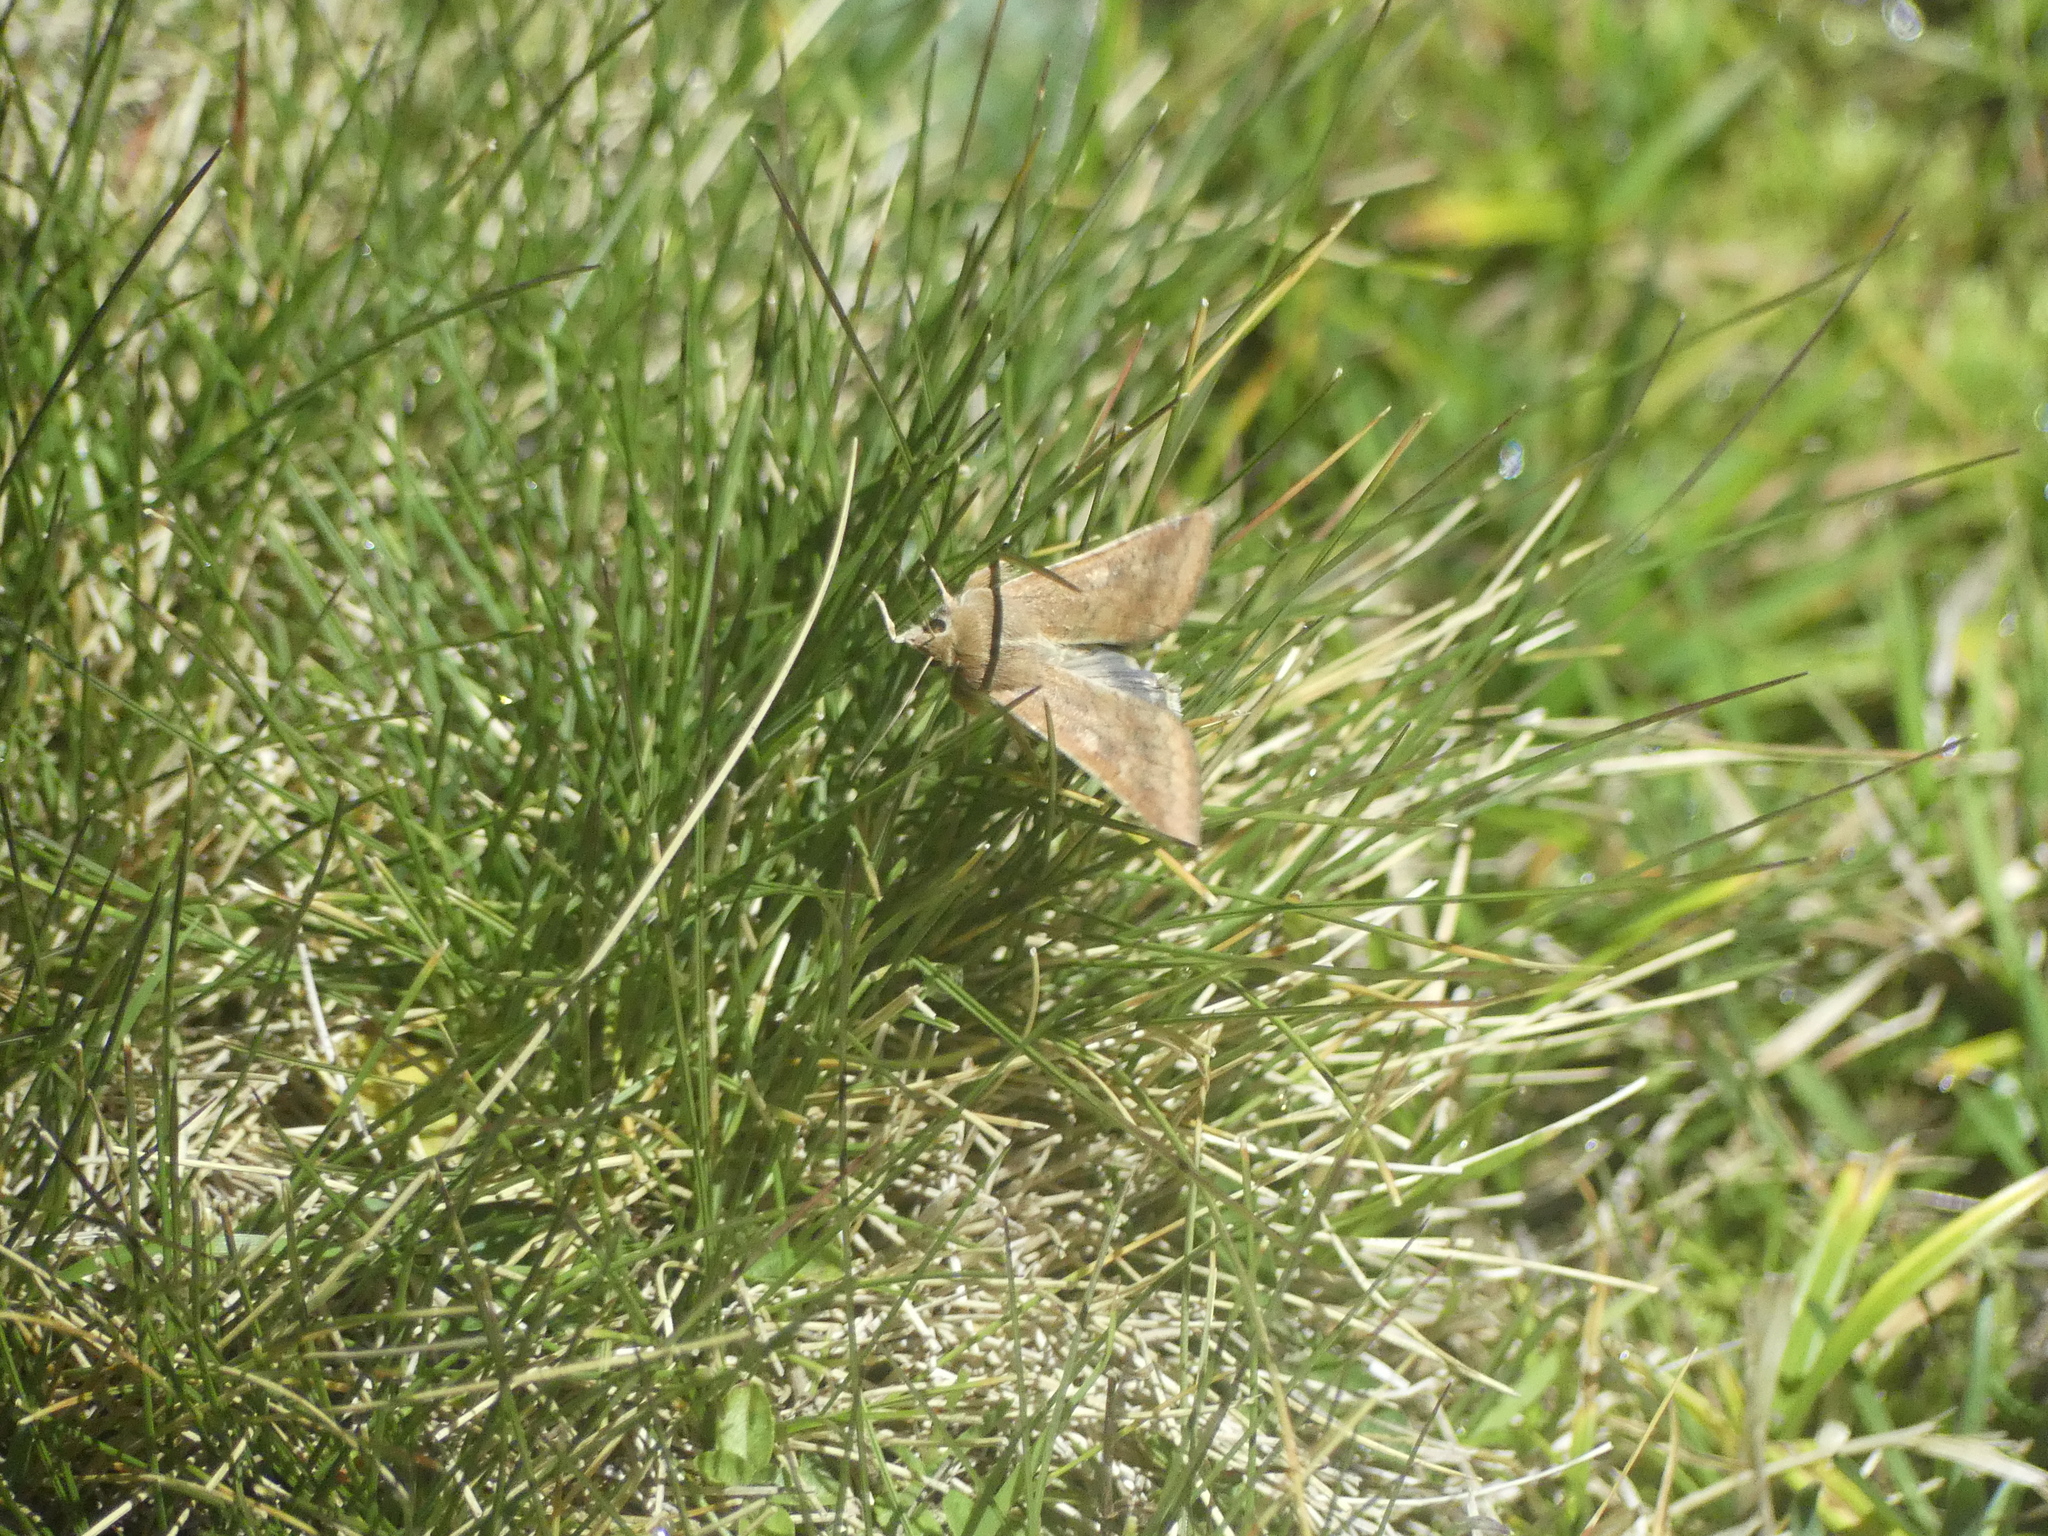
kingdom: Animalia
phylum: Arthropoda
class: Insecta
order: Lepidoptera
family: Noctuidae
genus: Helicoverpa
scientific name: Helicoverpa armigera
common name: Cotton bollworm
